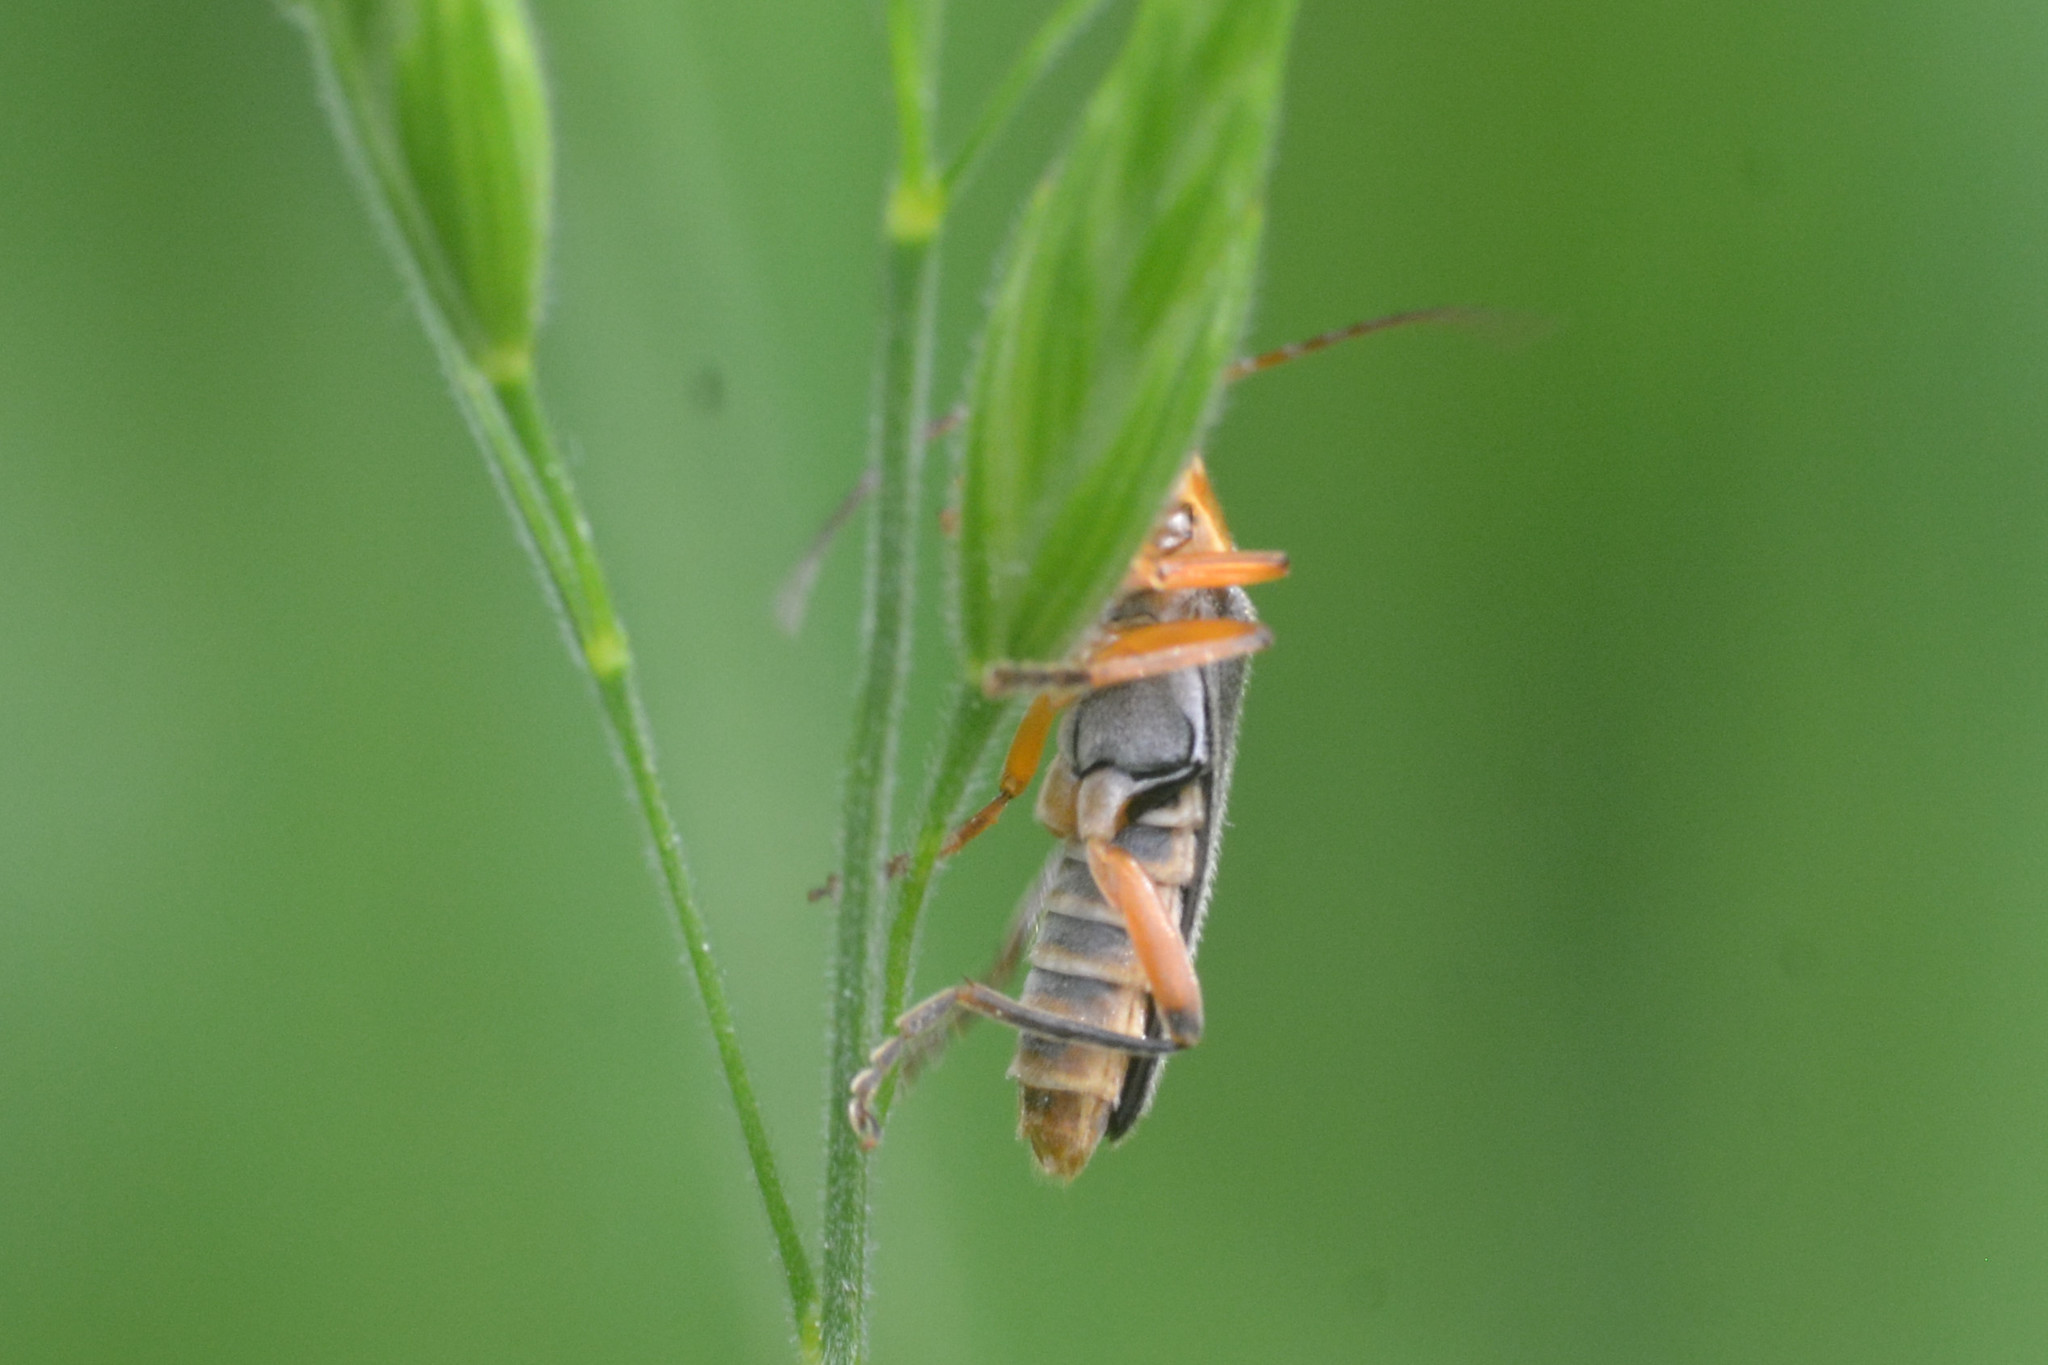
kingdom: Animalia
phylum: Arthropoda
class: Insecta
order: Coleoptera
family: Cantharidae
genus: Cantharis
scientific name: Cantharis nigricans
